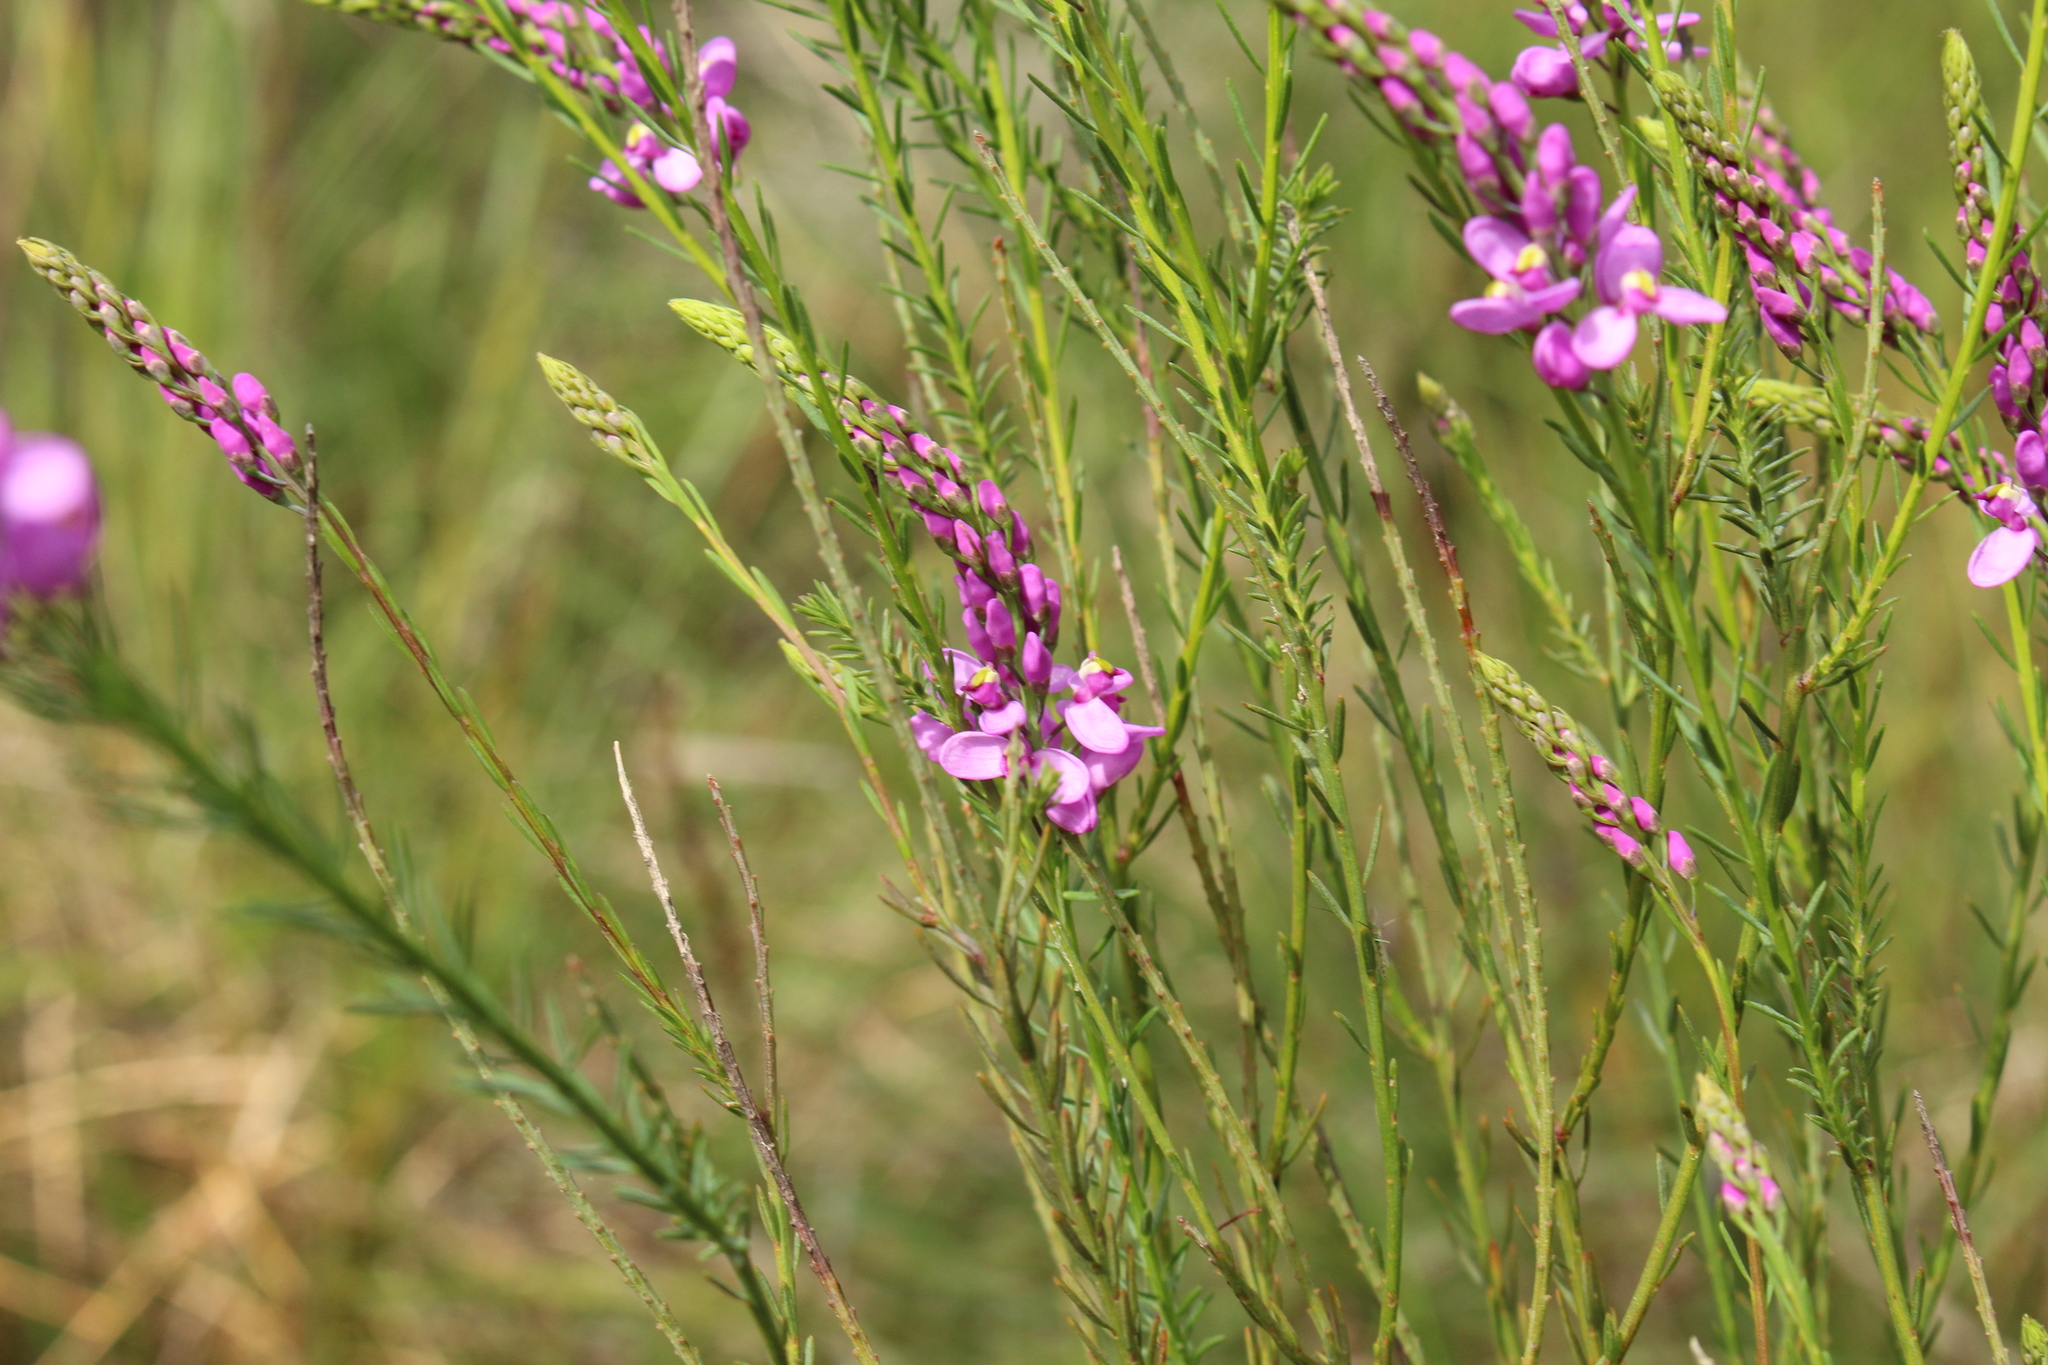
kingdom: Plantae
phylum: Tracheophyta
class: Magnoliopsida
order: Fabales
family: Polygalaceae
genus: Comesperma
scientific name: Comesperma virgatum
